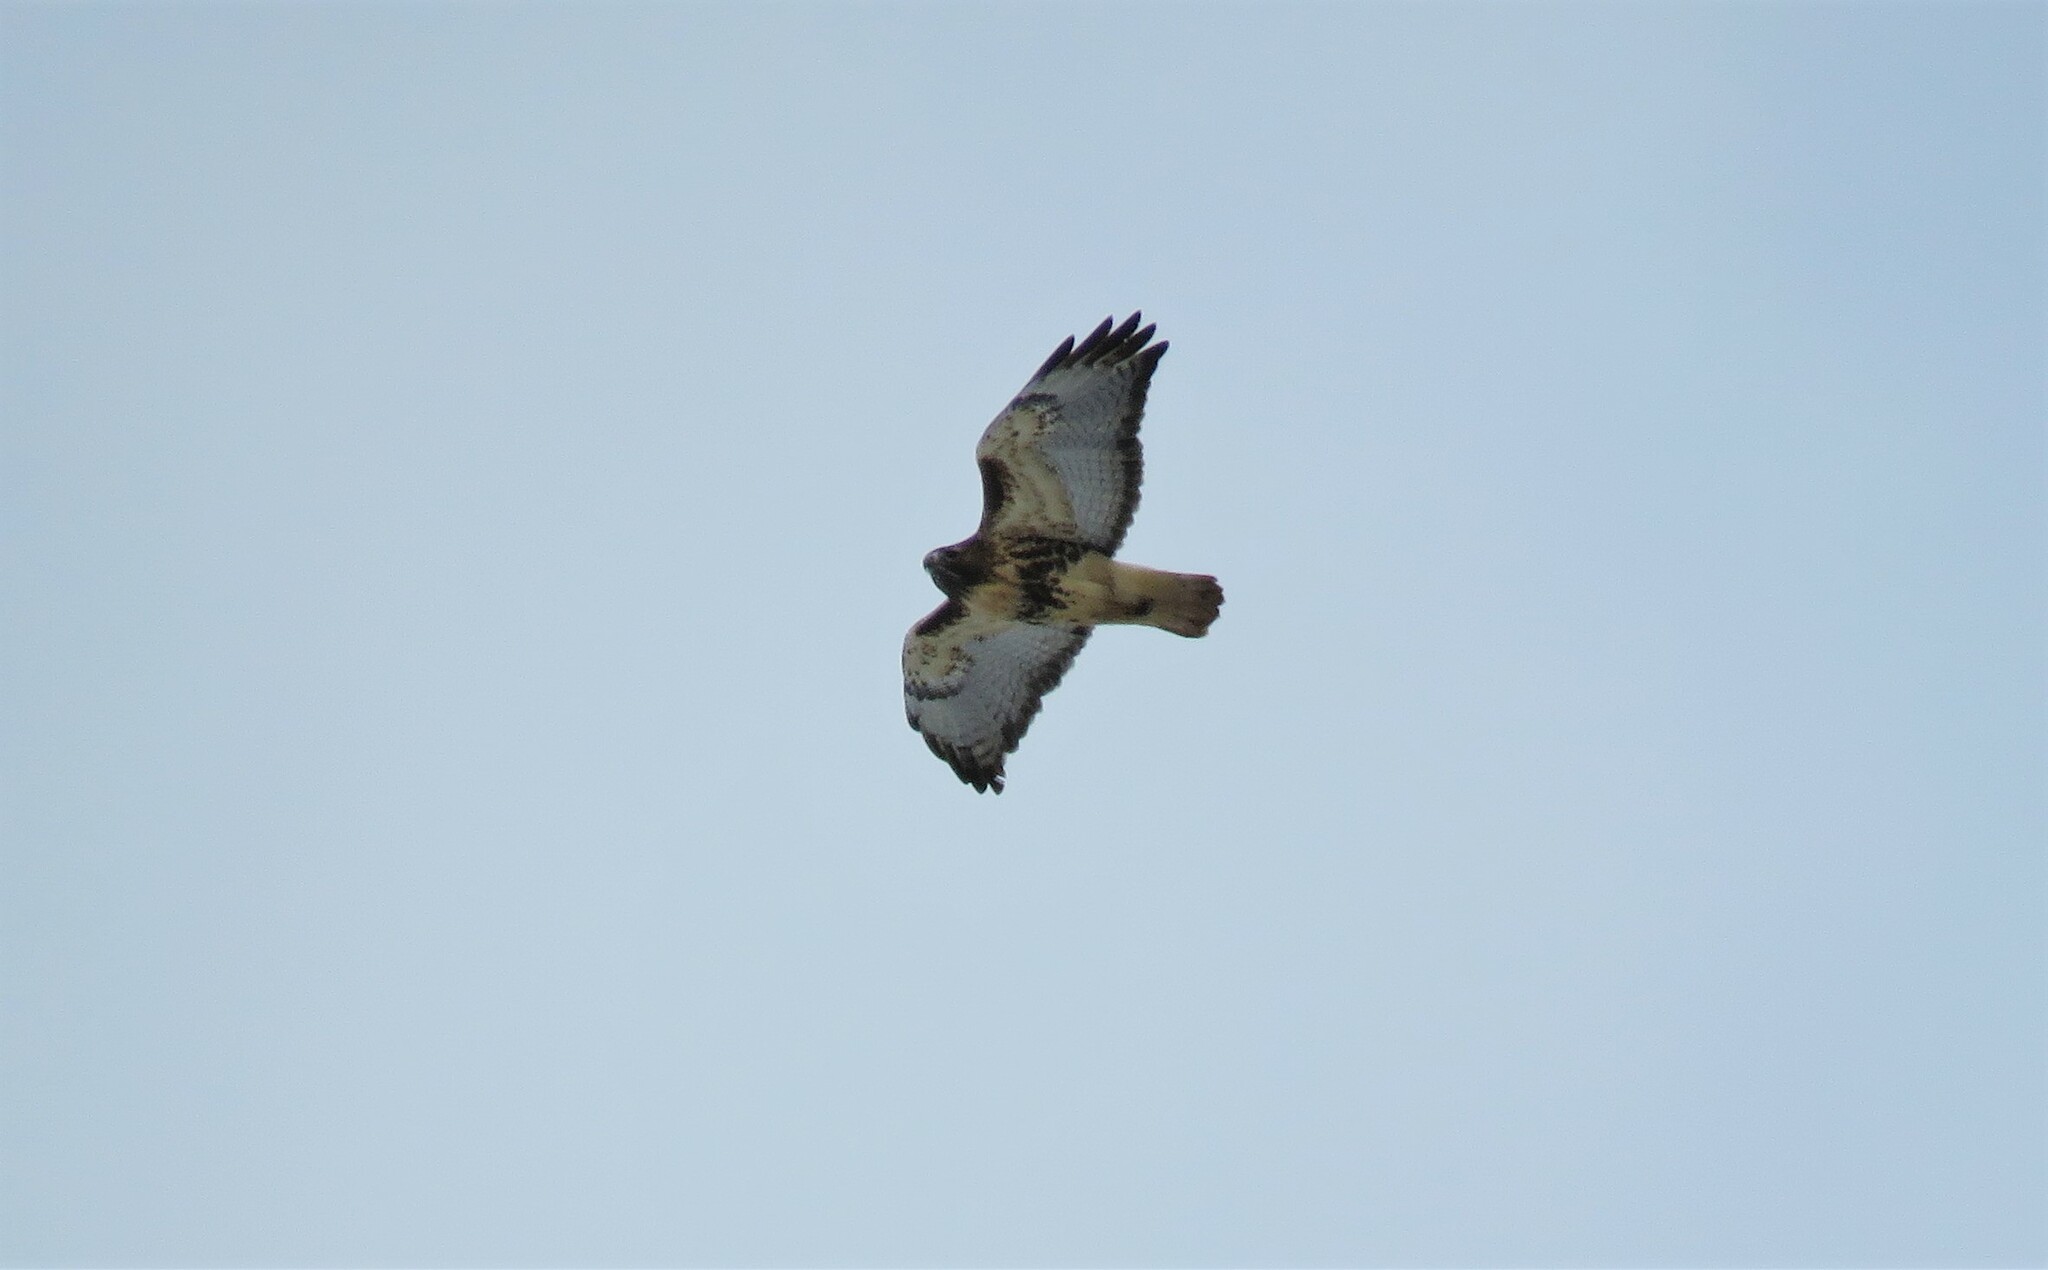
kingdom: Animalia
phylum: Chordata
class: Aves
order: Accipitriformes
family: Accipitridae
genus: Buteo
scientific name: Buteo jamaicensis
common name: Red-tailed hawk
